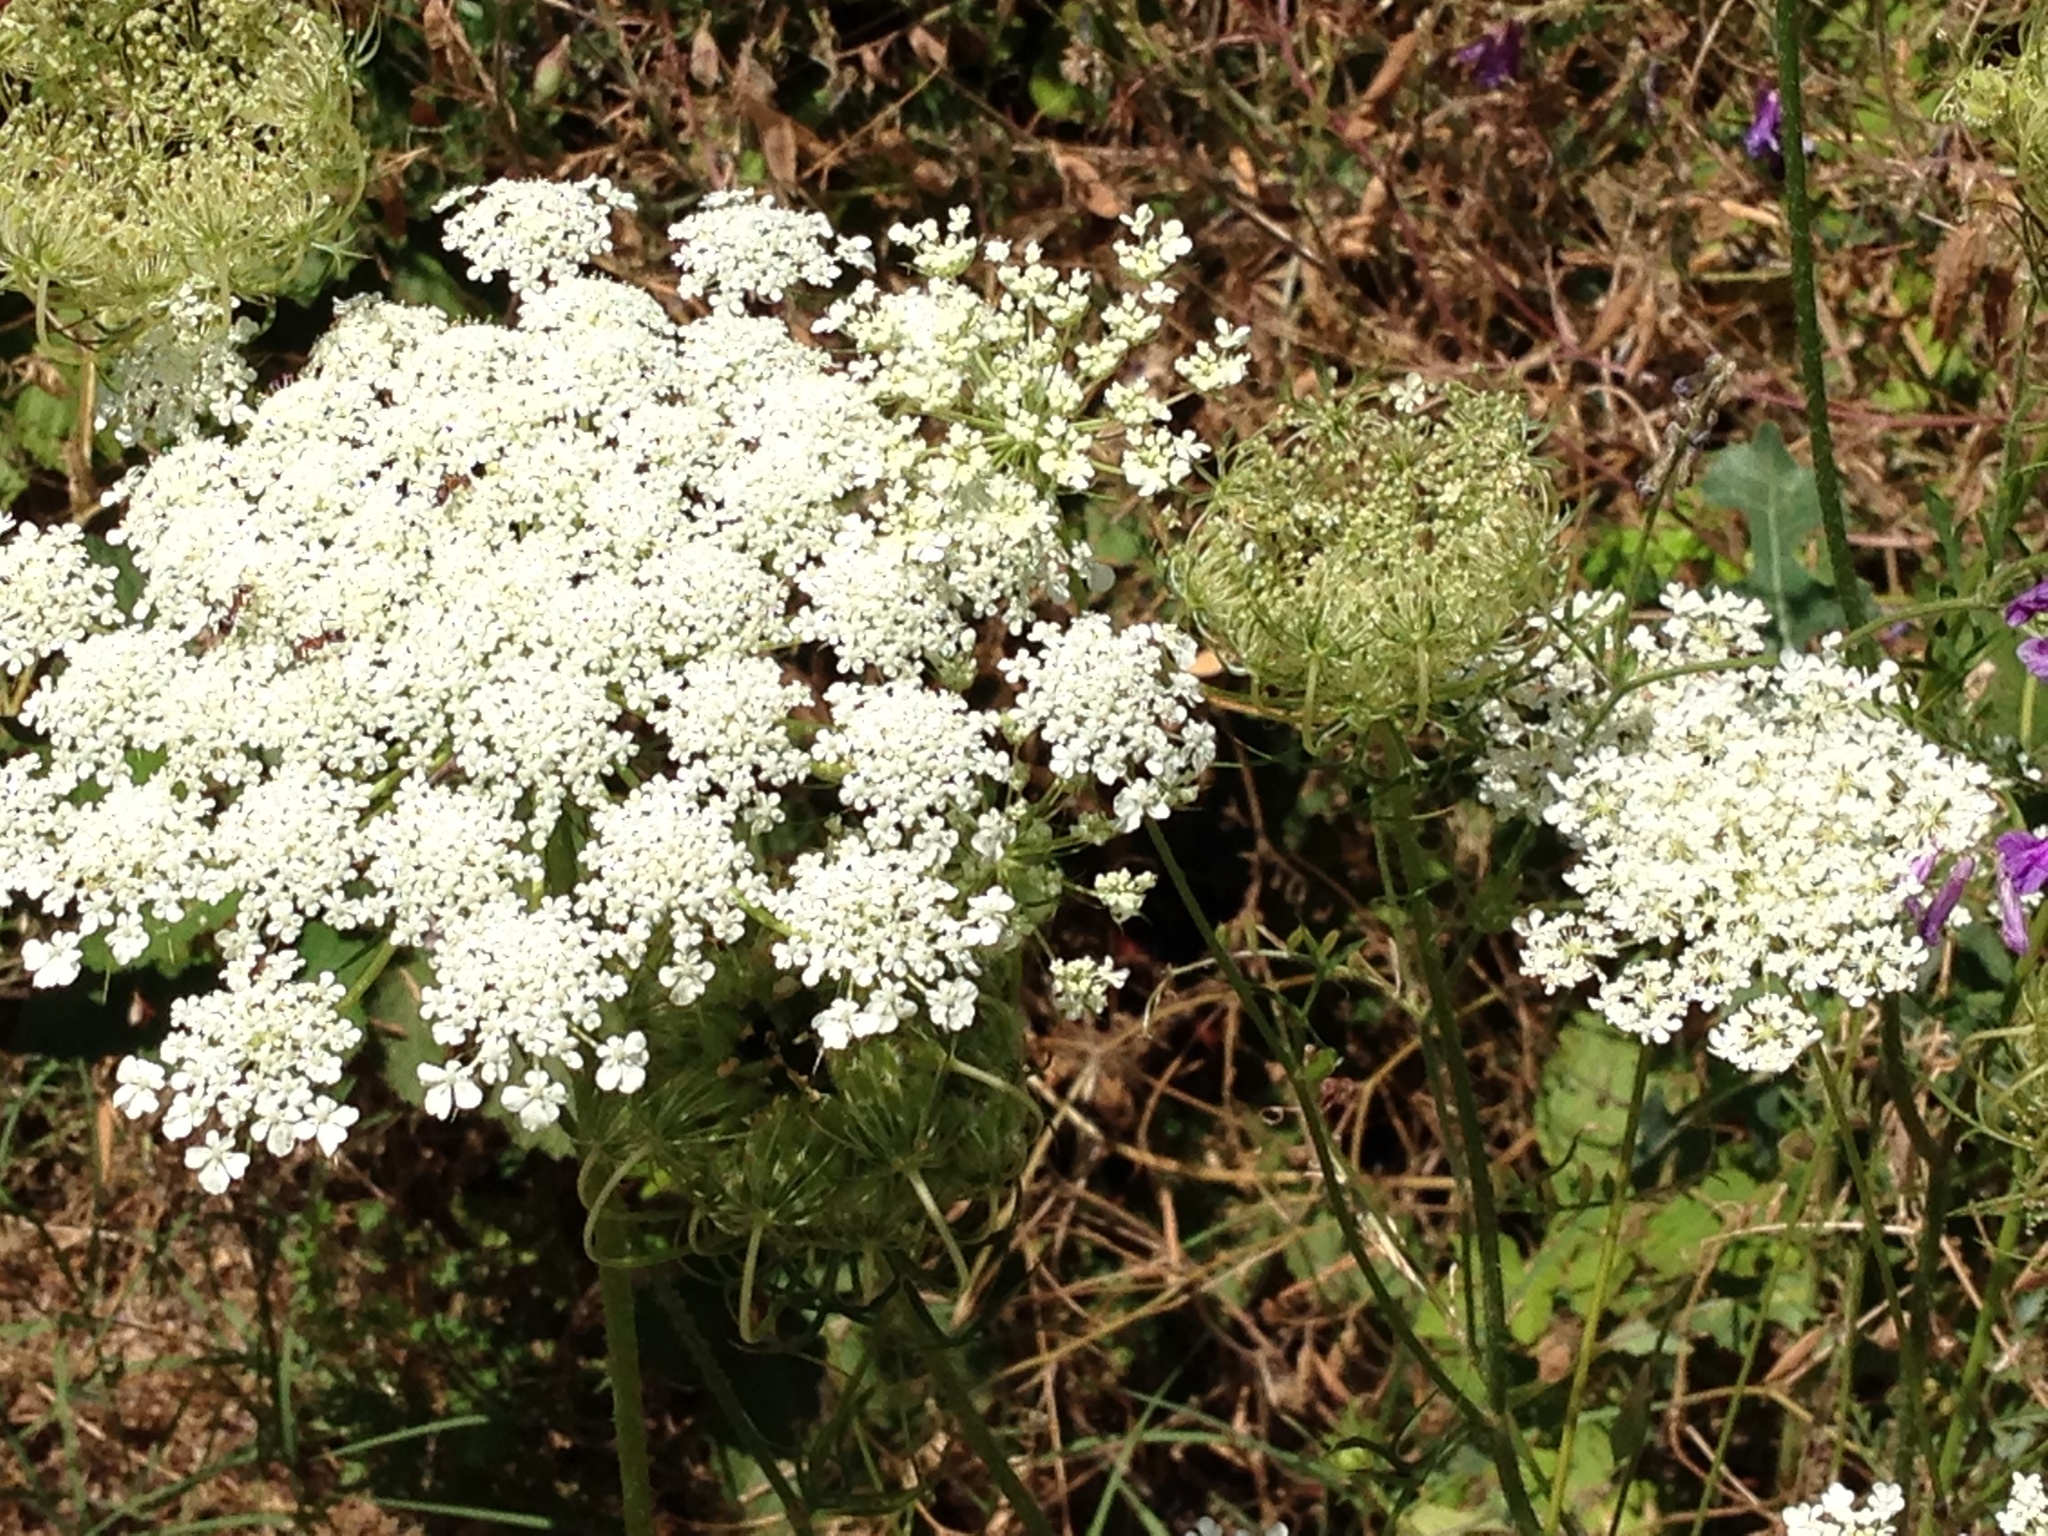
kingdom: Plantae
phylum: Tracheophyta
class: Magnoliopsida
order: Apiales
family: Apiaceae
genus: Daucus
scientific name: Daucus carota
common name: Wild carrot
